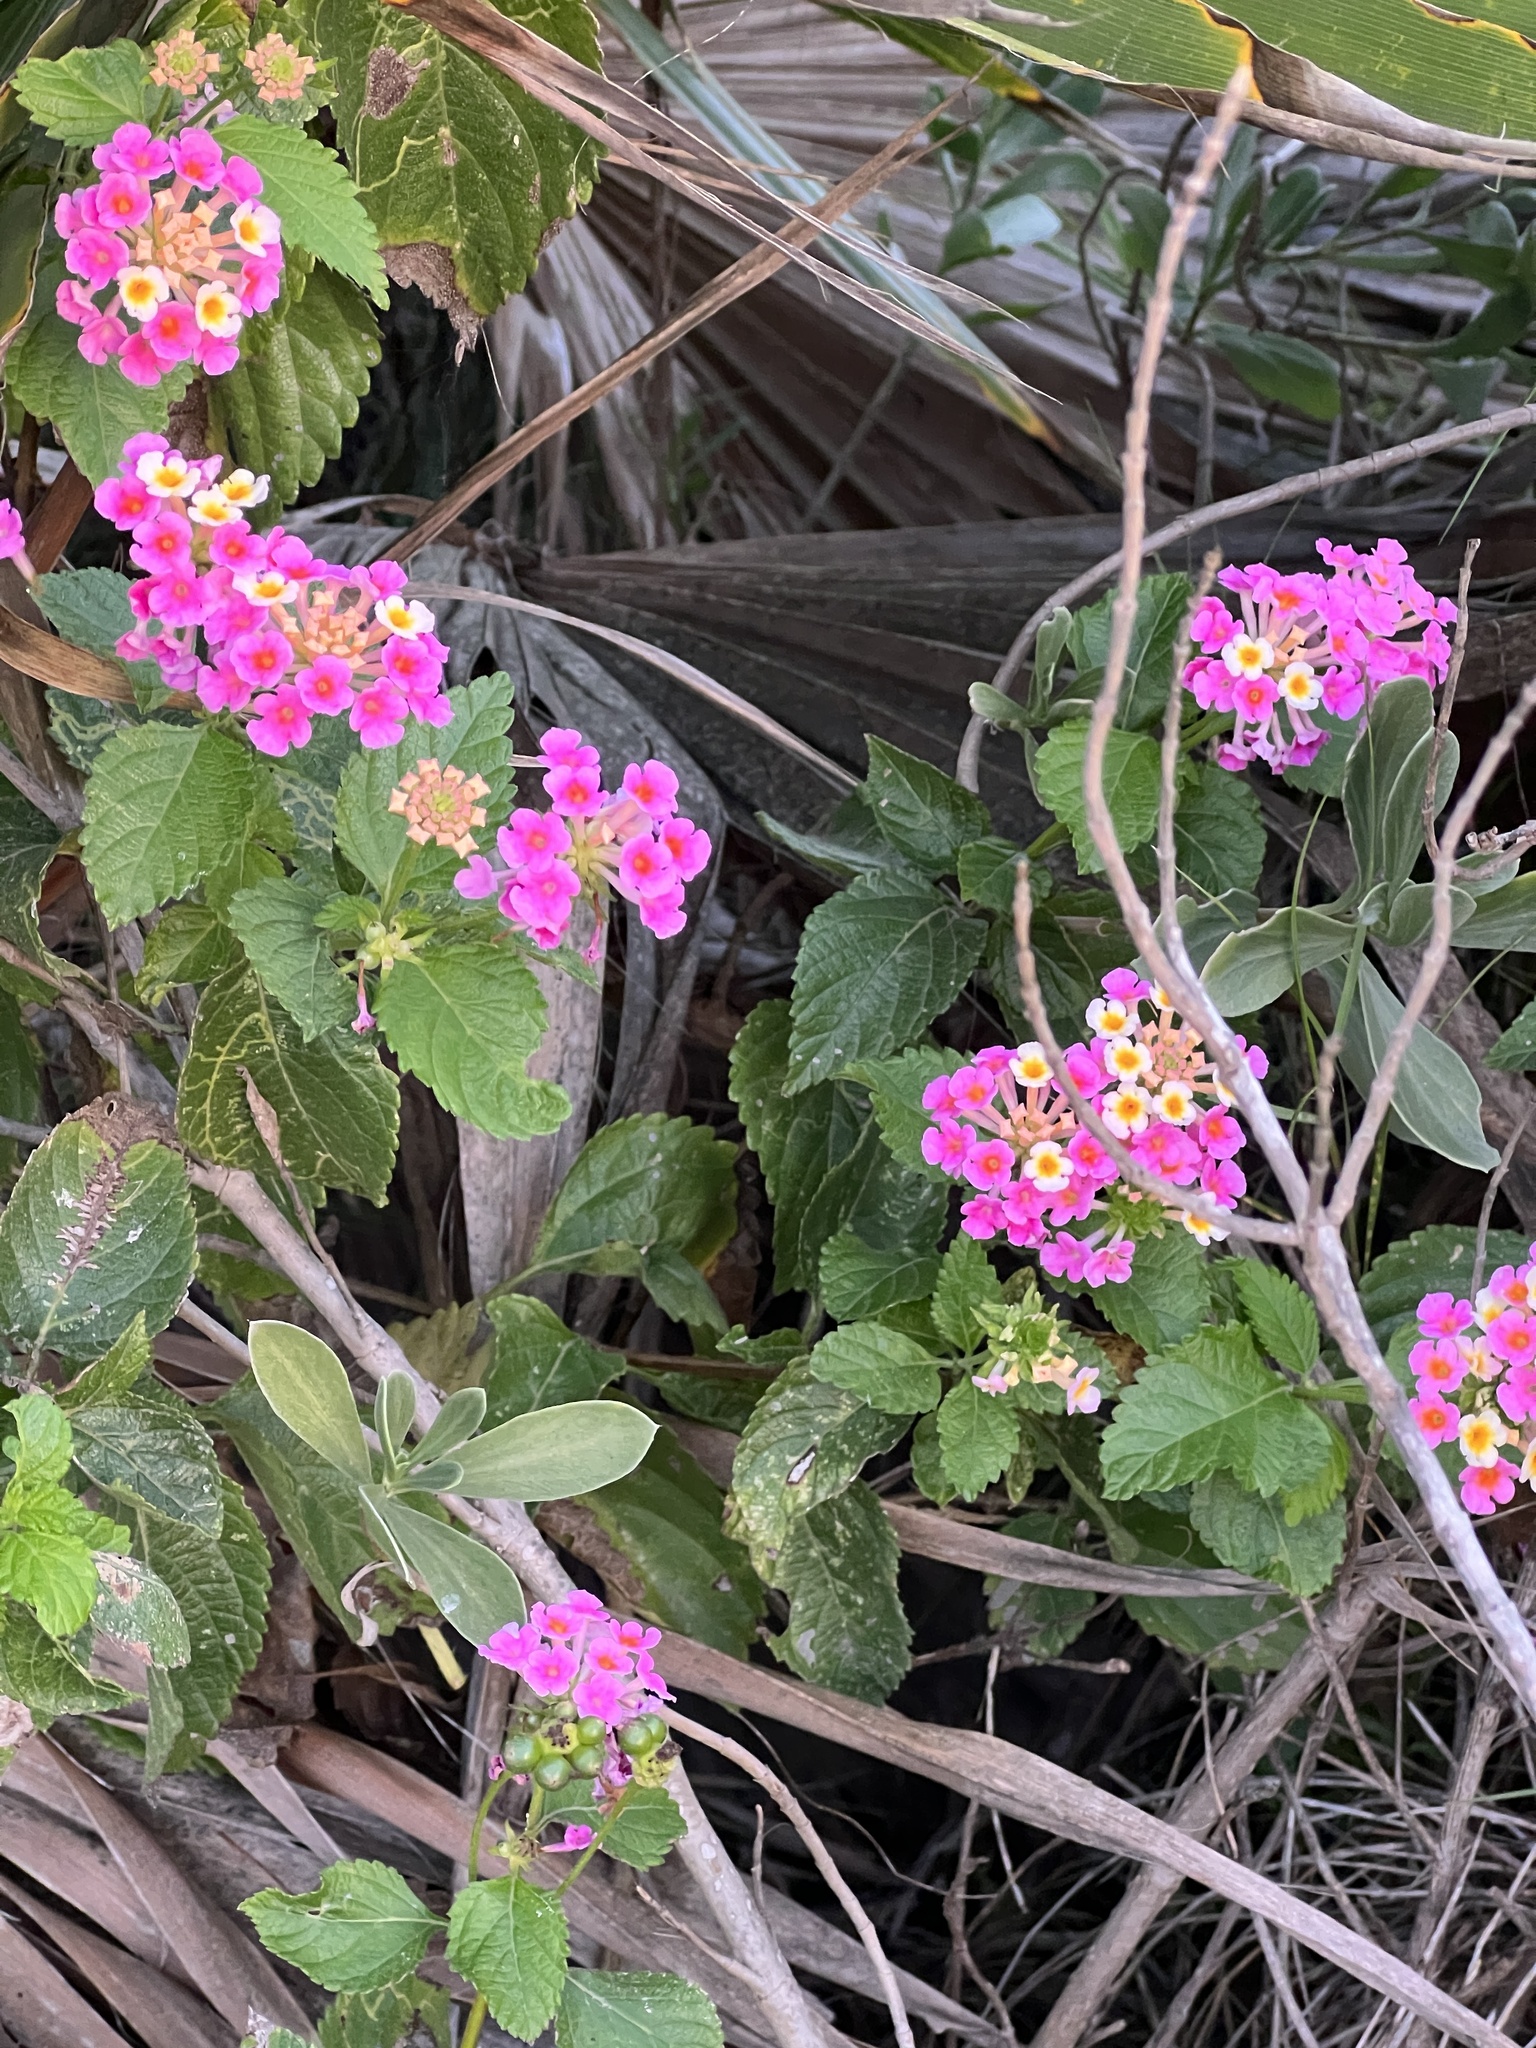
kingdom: Plantae
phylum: Tracheophyta
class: Magnoliopsida
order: Lamiales
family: Verbenaceae
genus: Lantana
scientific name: Lantana strigocamara
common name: Lantana
